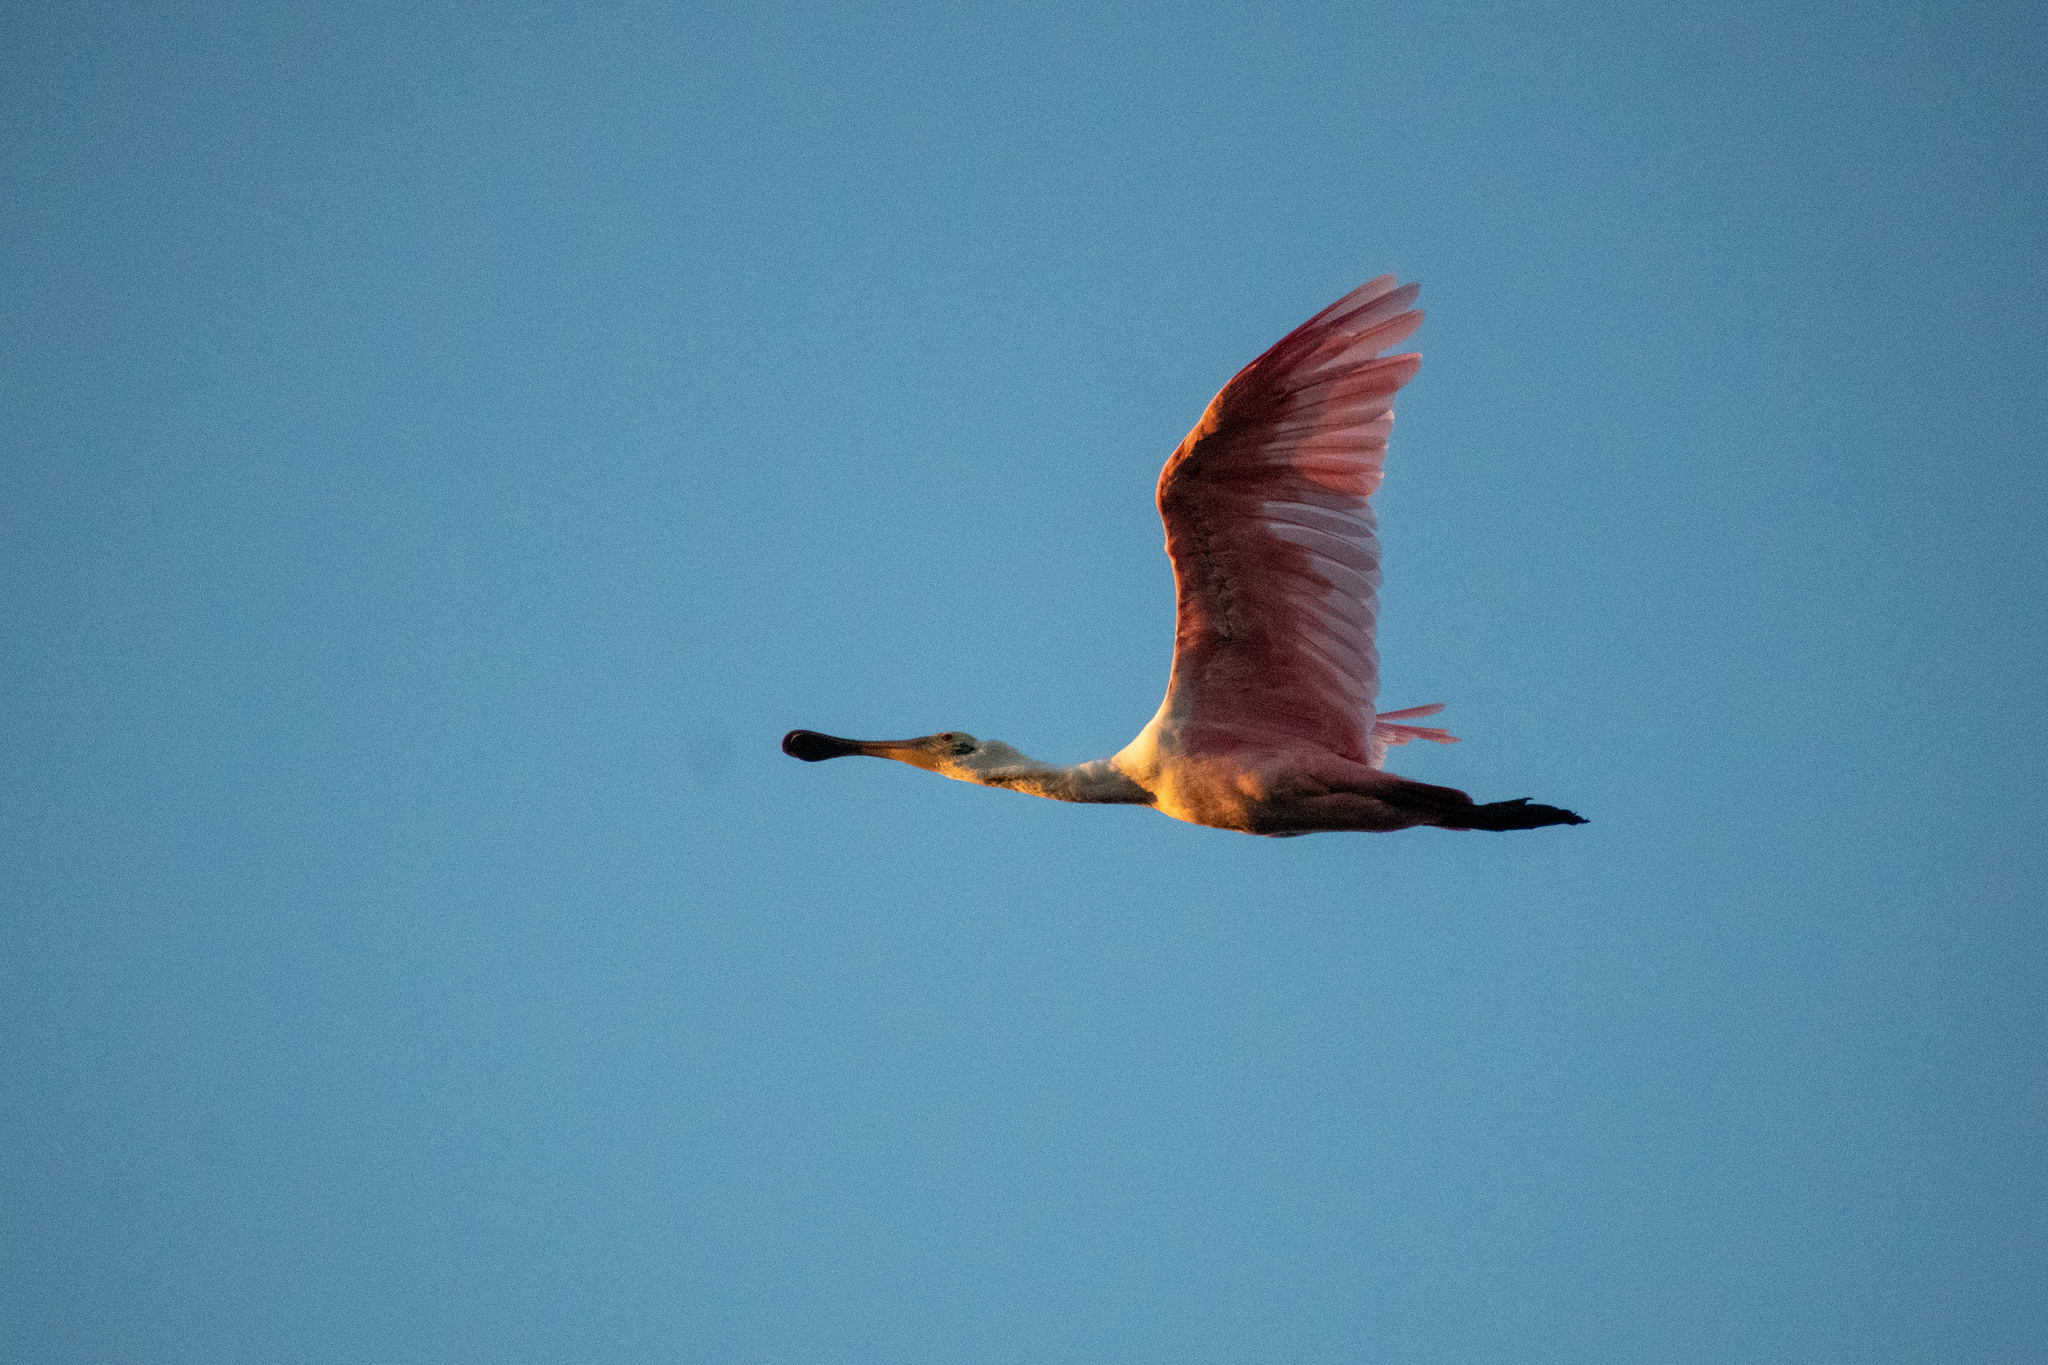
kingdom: Animalia
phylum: Chordata
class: Aves
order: Pelecaniformes
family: Threskiornithidae
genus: Platalea
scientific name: Platalea ajaja
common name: Roseate spoonbill
